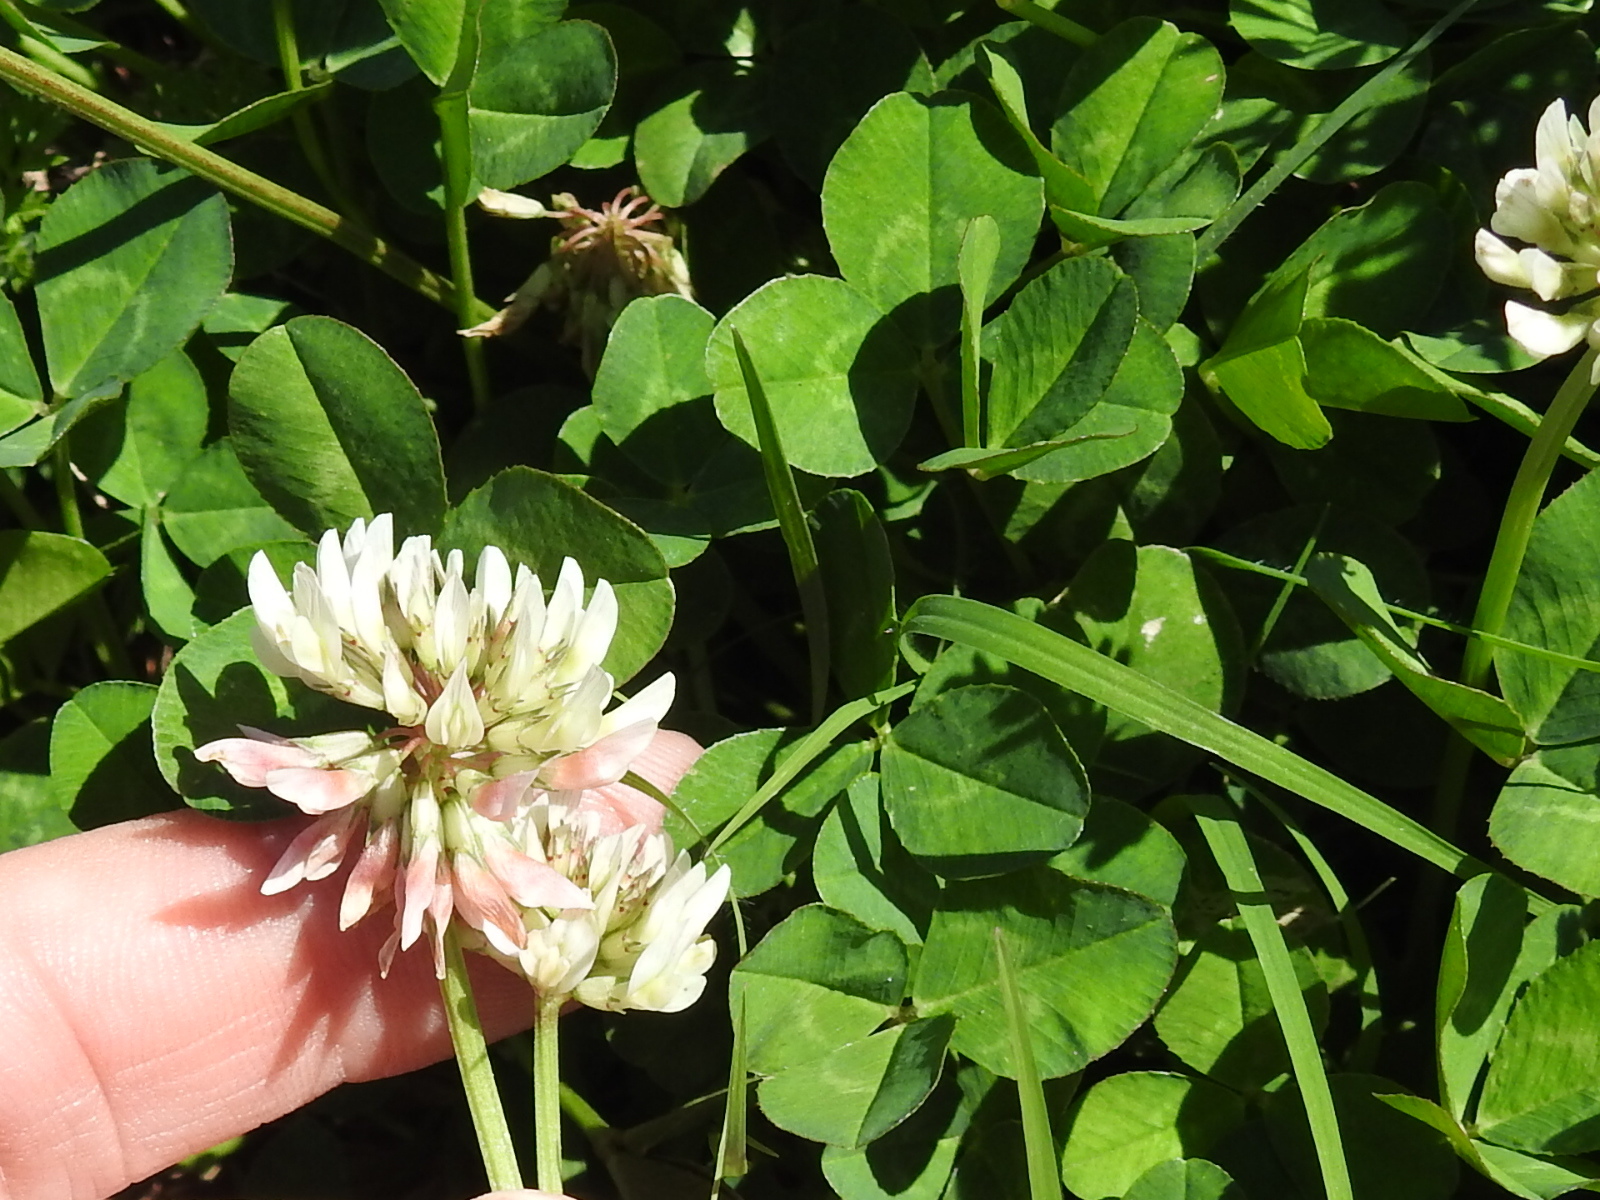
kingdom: Plantae
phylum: Tracheophyta
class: Magnoliopsida
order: Fabales
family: Fabaceae
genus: Trifolium
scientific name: Trifolium repens
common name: White clover
